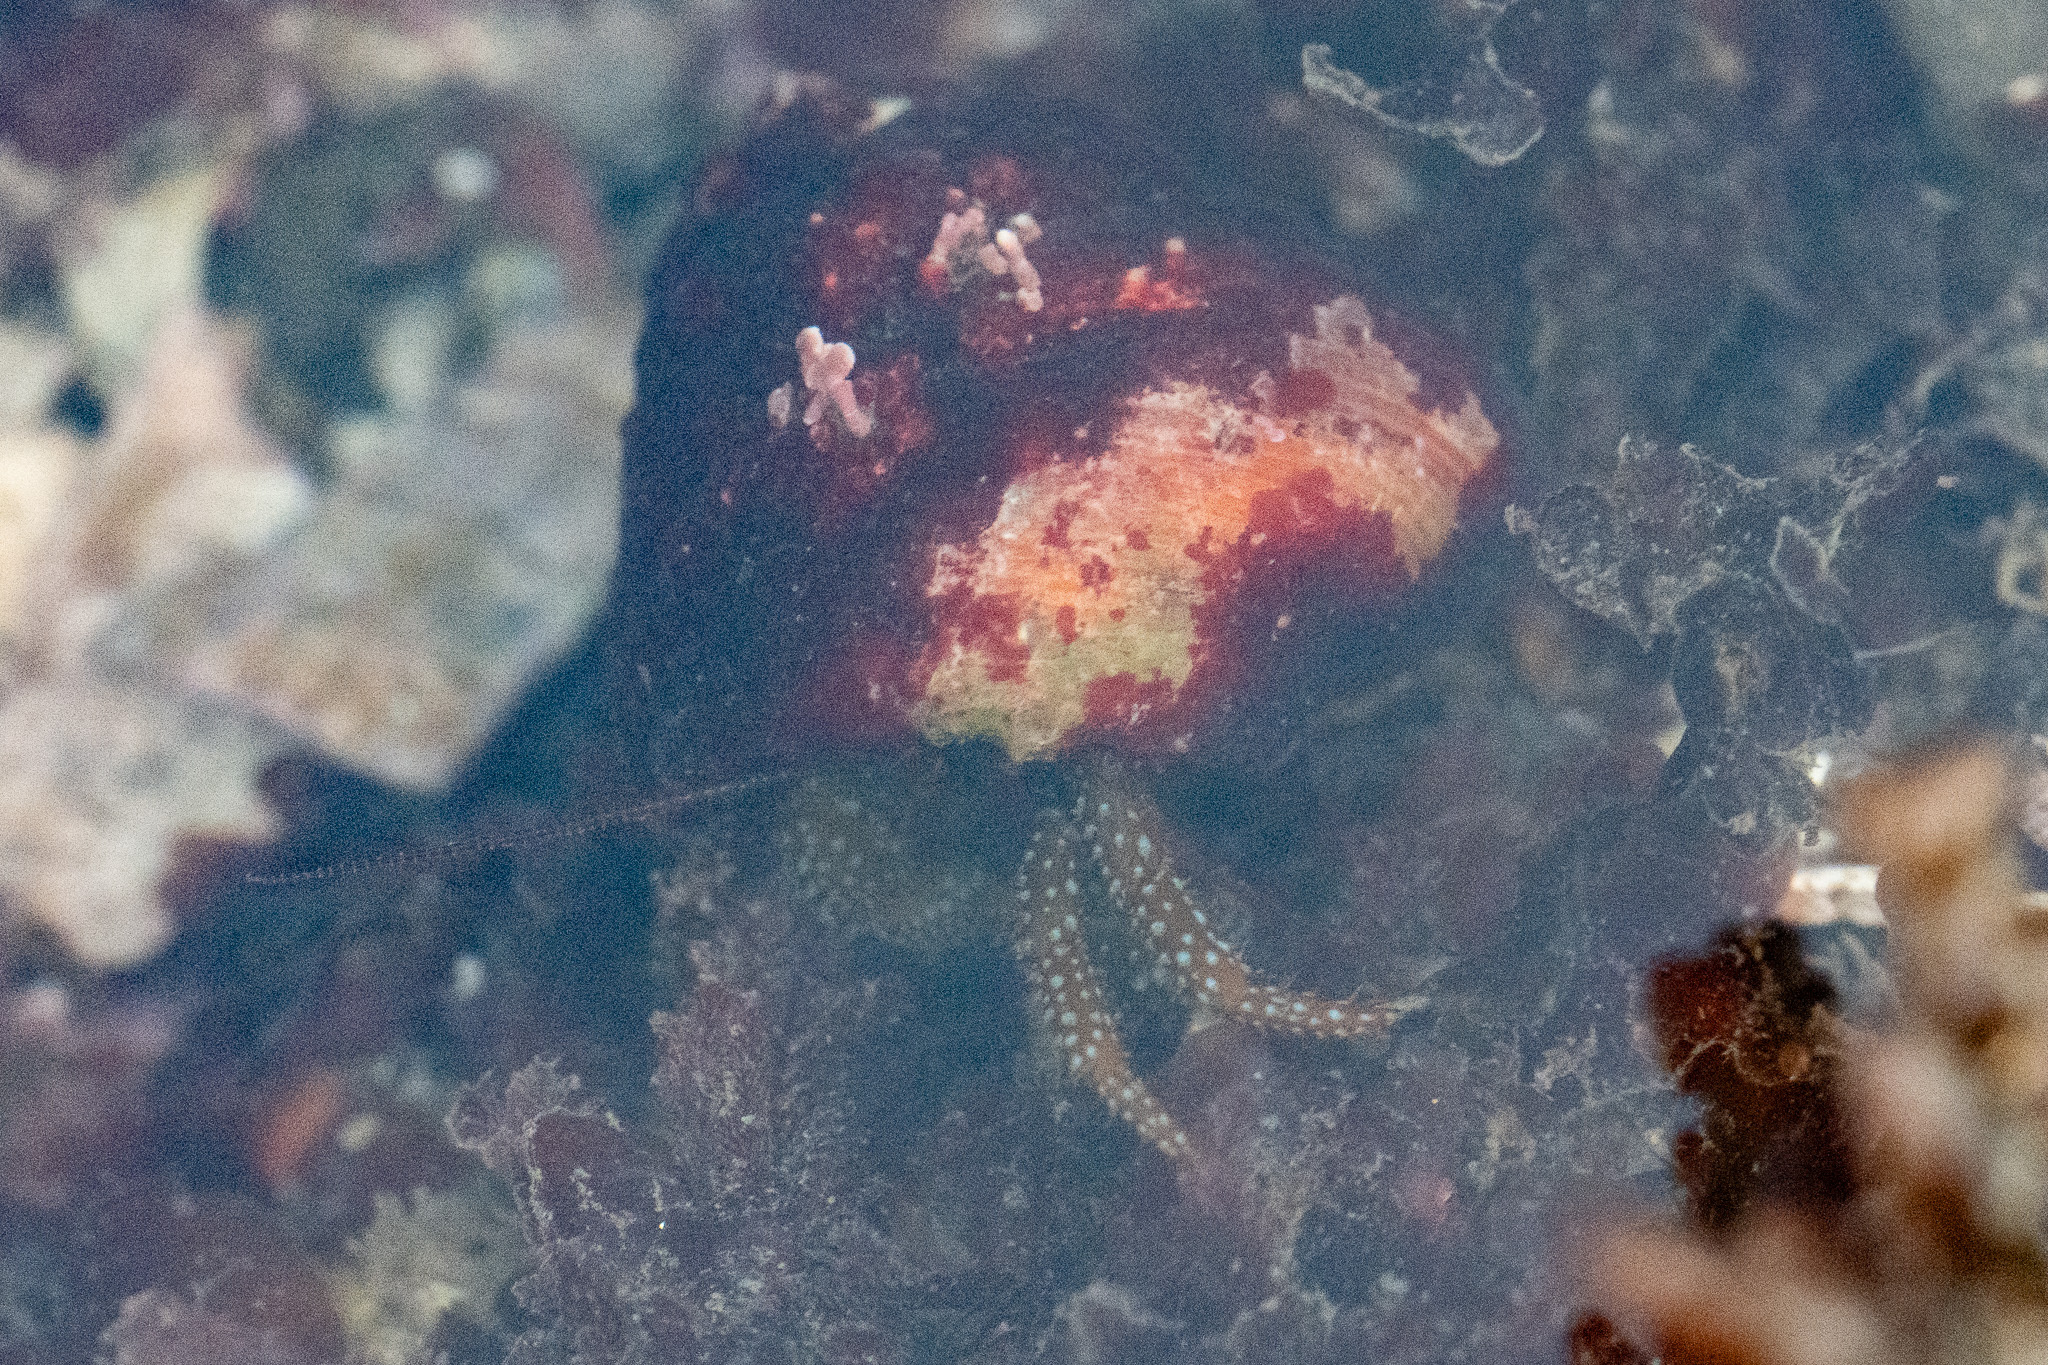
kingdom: Animalia
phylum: Arthropoda
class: Malacostraca
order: Decapoda
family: Paguridae
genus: Pagurus
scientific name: Pagurus granosimanus
